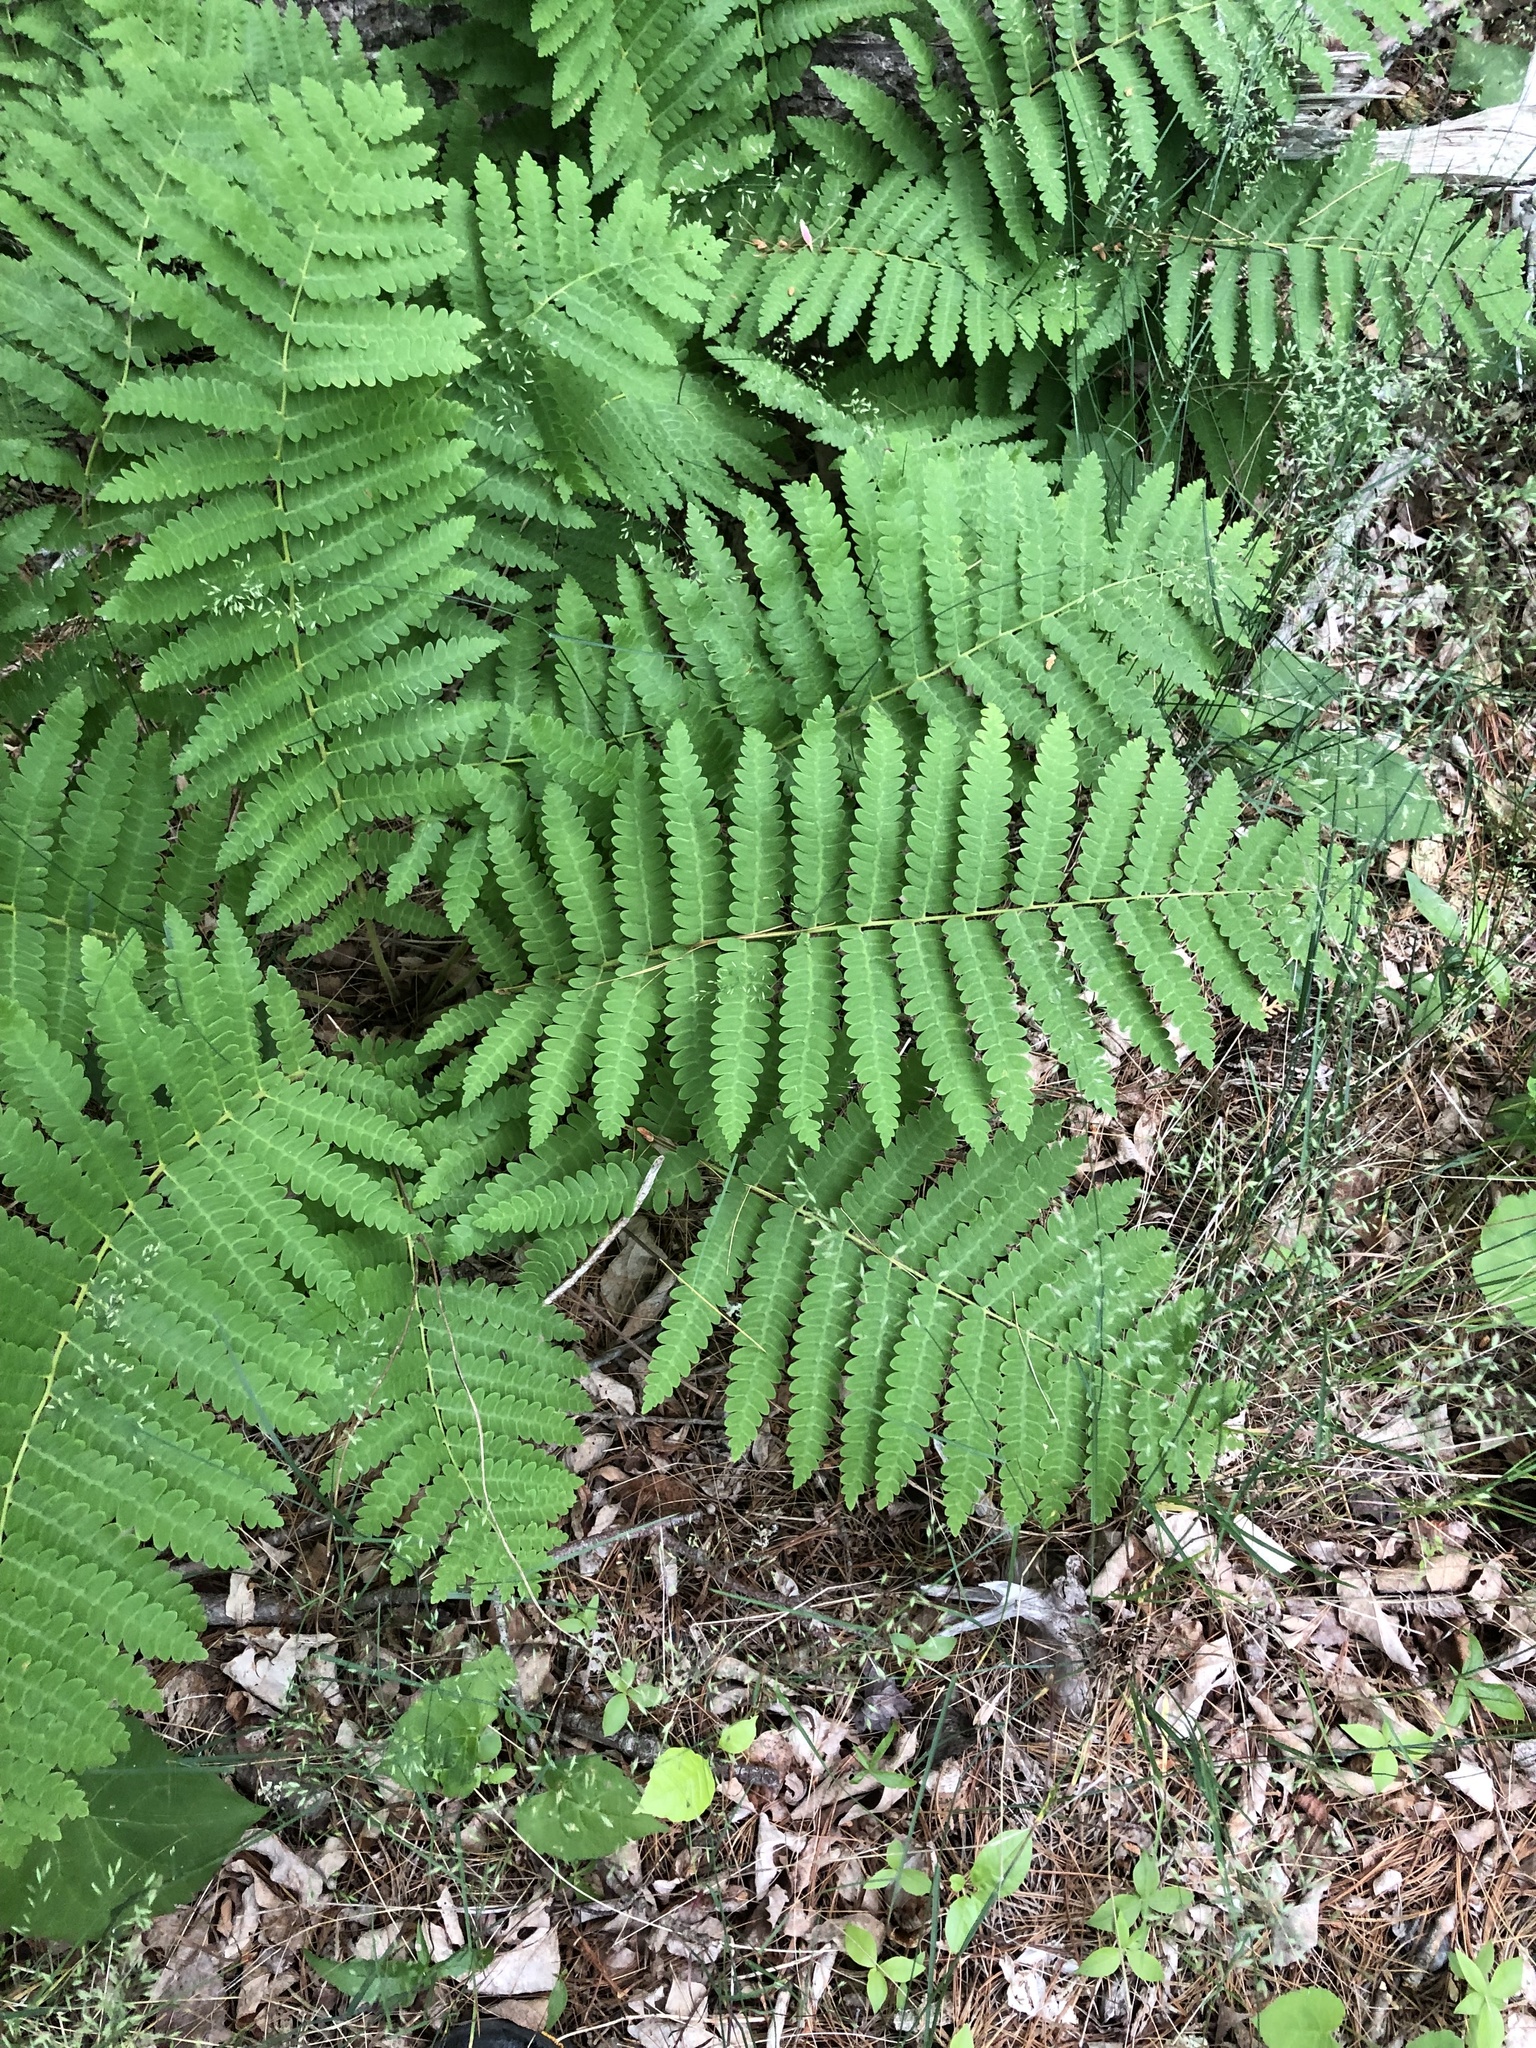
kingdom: Plantae
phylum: Tracheophyta
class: Polypodiopsida
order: Osmundales
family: Osmundaceae
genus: Claytosmunda
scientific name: Claytosmunda claytoniana
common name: Clayton's fern
